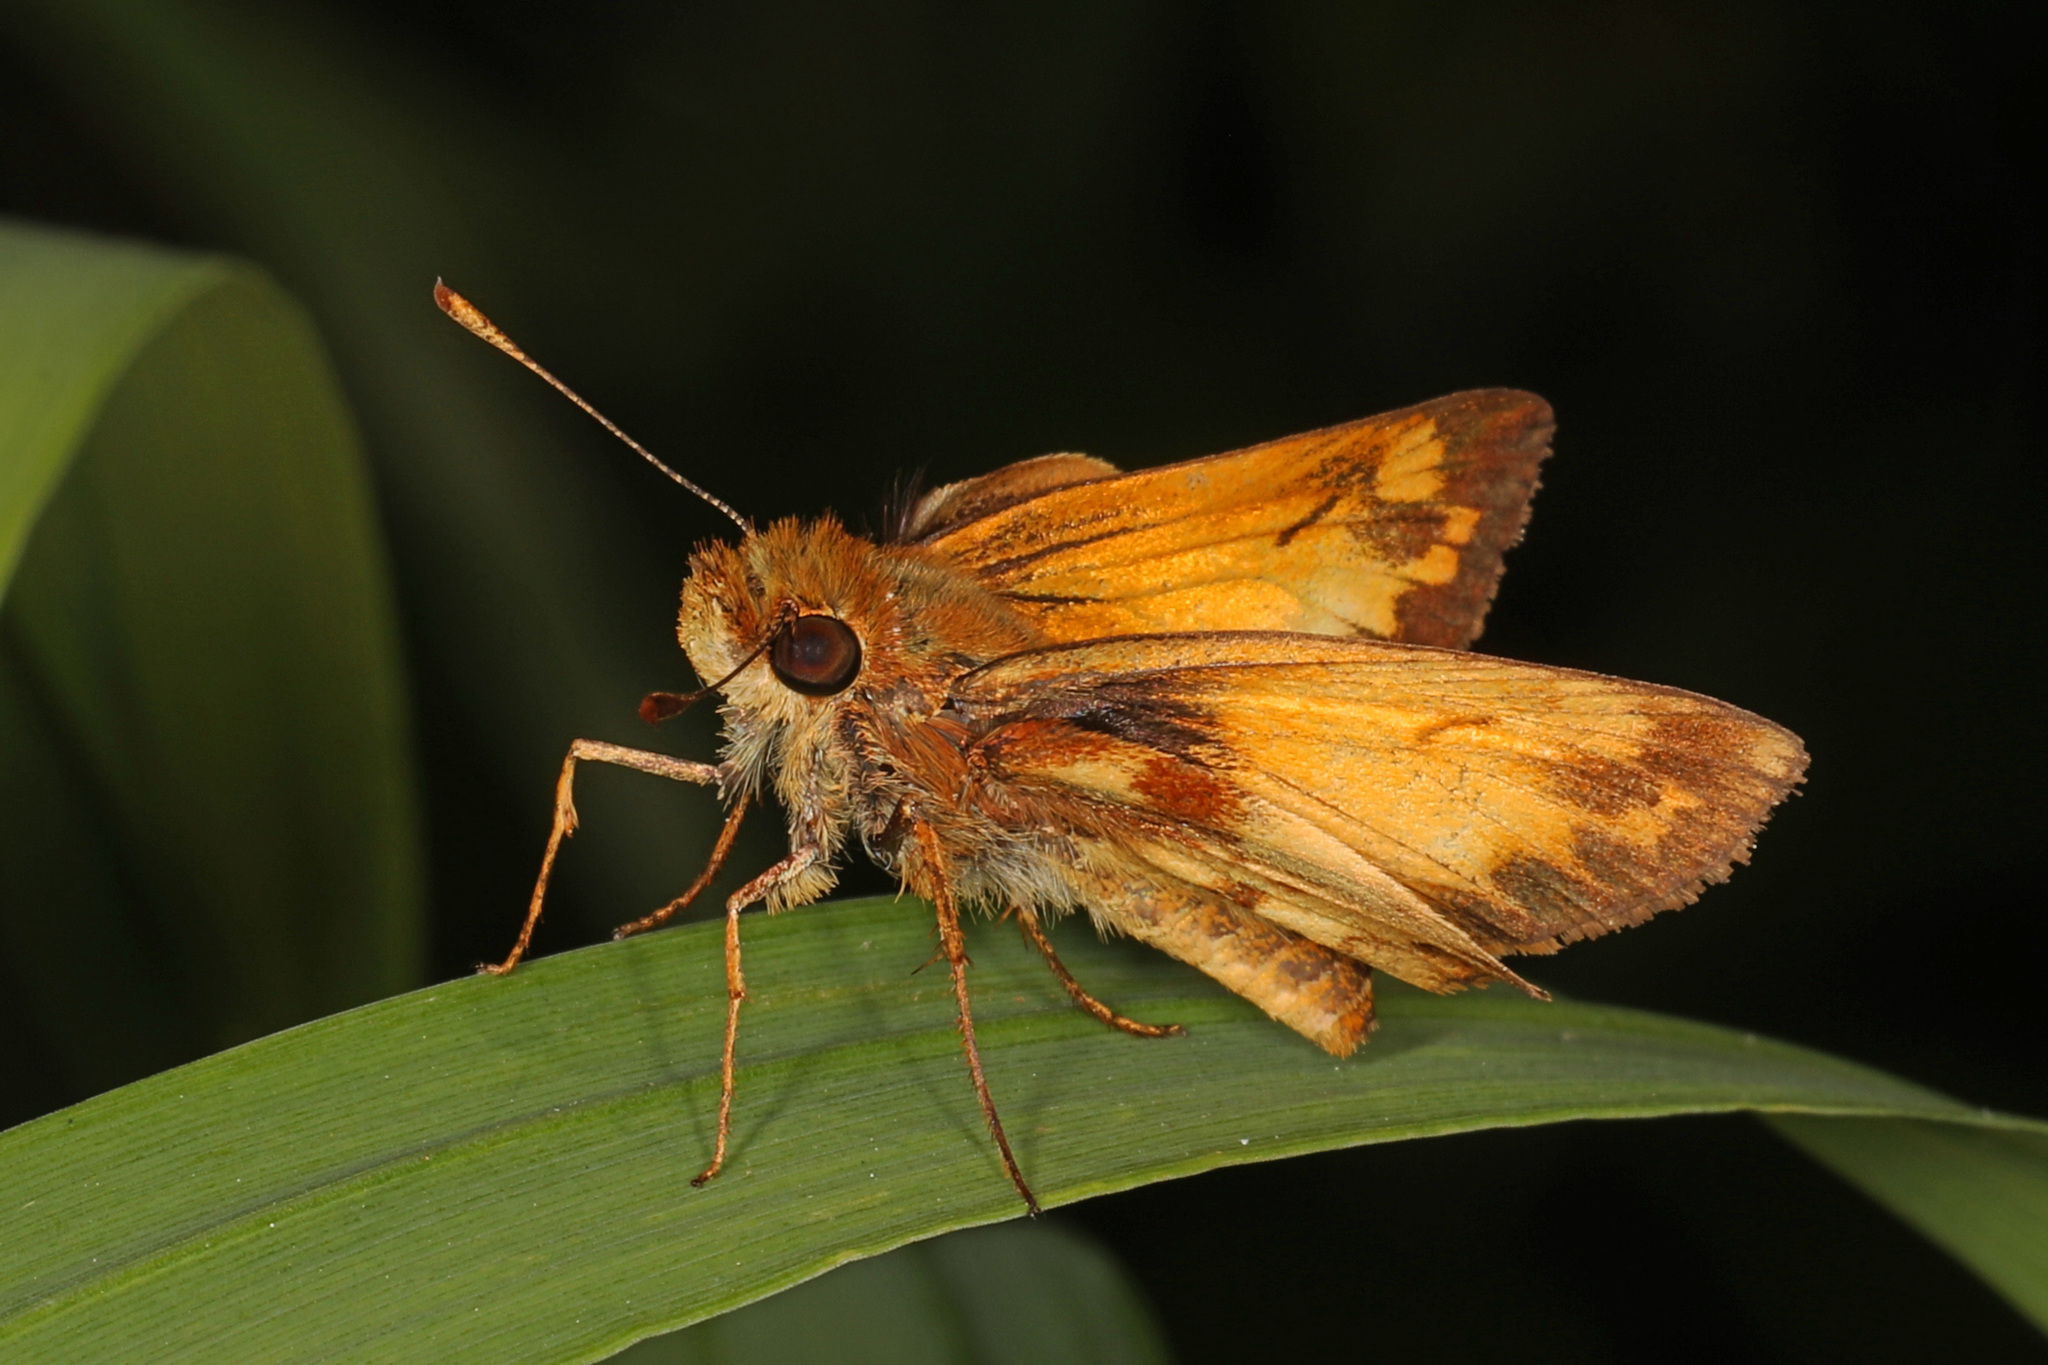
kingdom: Animalia
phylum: Arthropoda
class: Insecta
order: Lepidoptera
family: Hesperiidae
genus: Lon
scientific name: Lon zabulon
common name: Zabulon skipper
